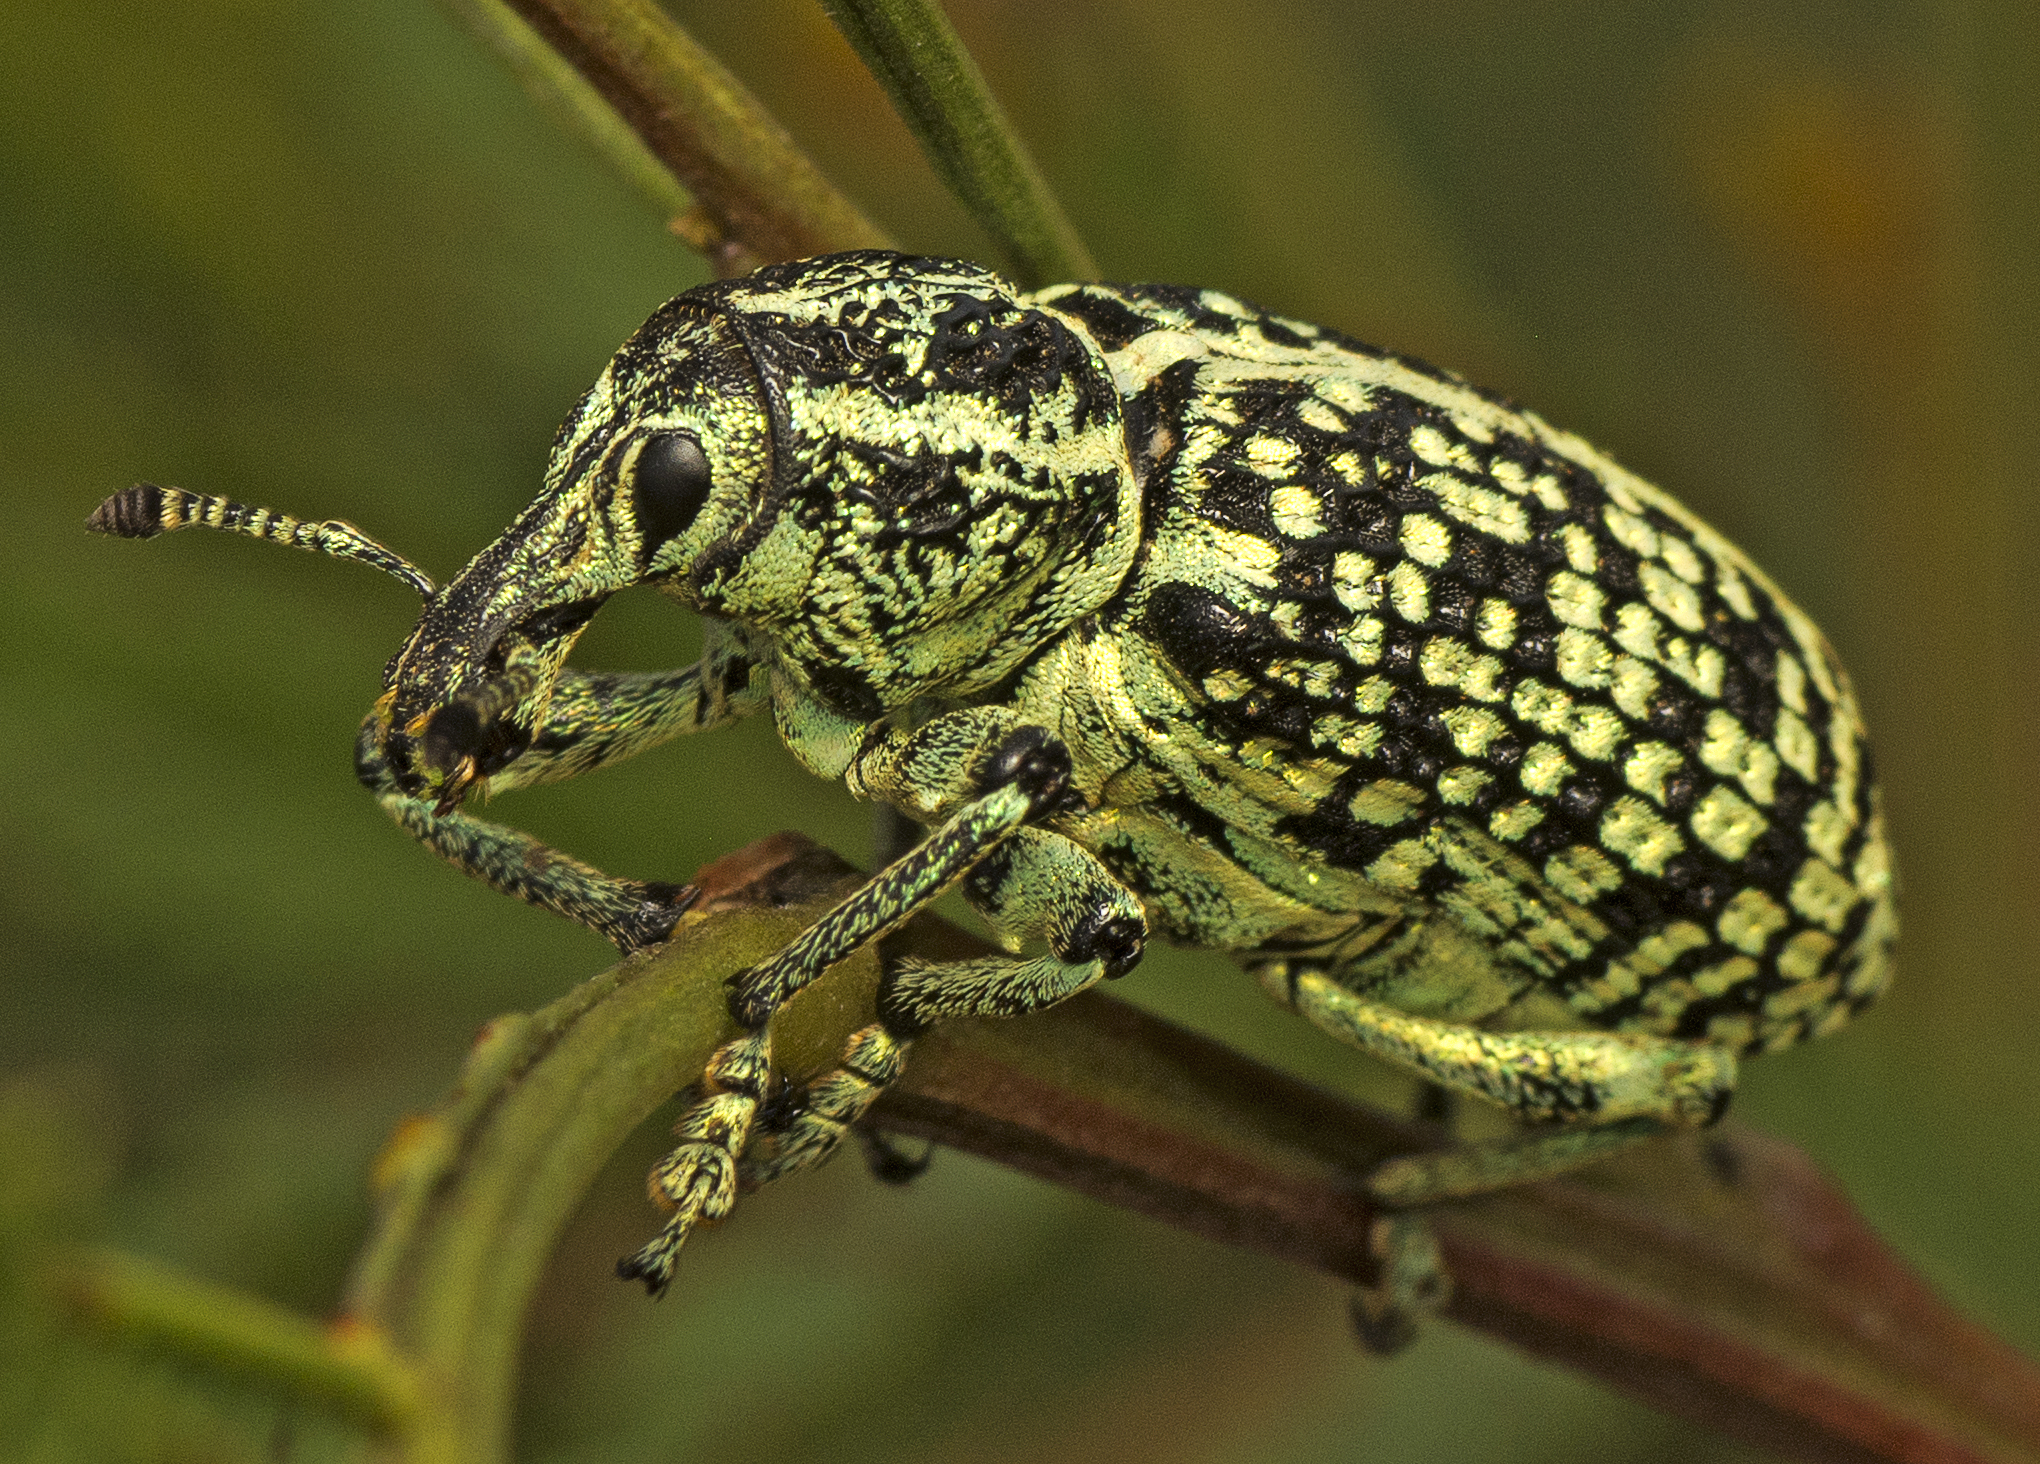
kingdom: Animalia
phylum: Arthropoda
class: Insecta
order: Coleoptera
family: Curculionidae
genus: Chrysolopus
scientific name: Chrysolopus spectabilis
